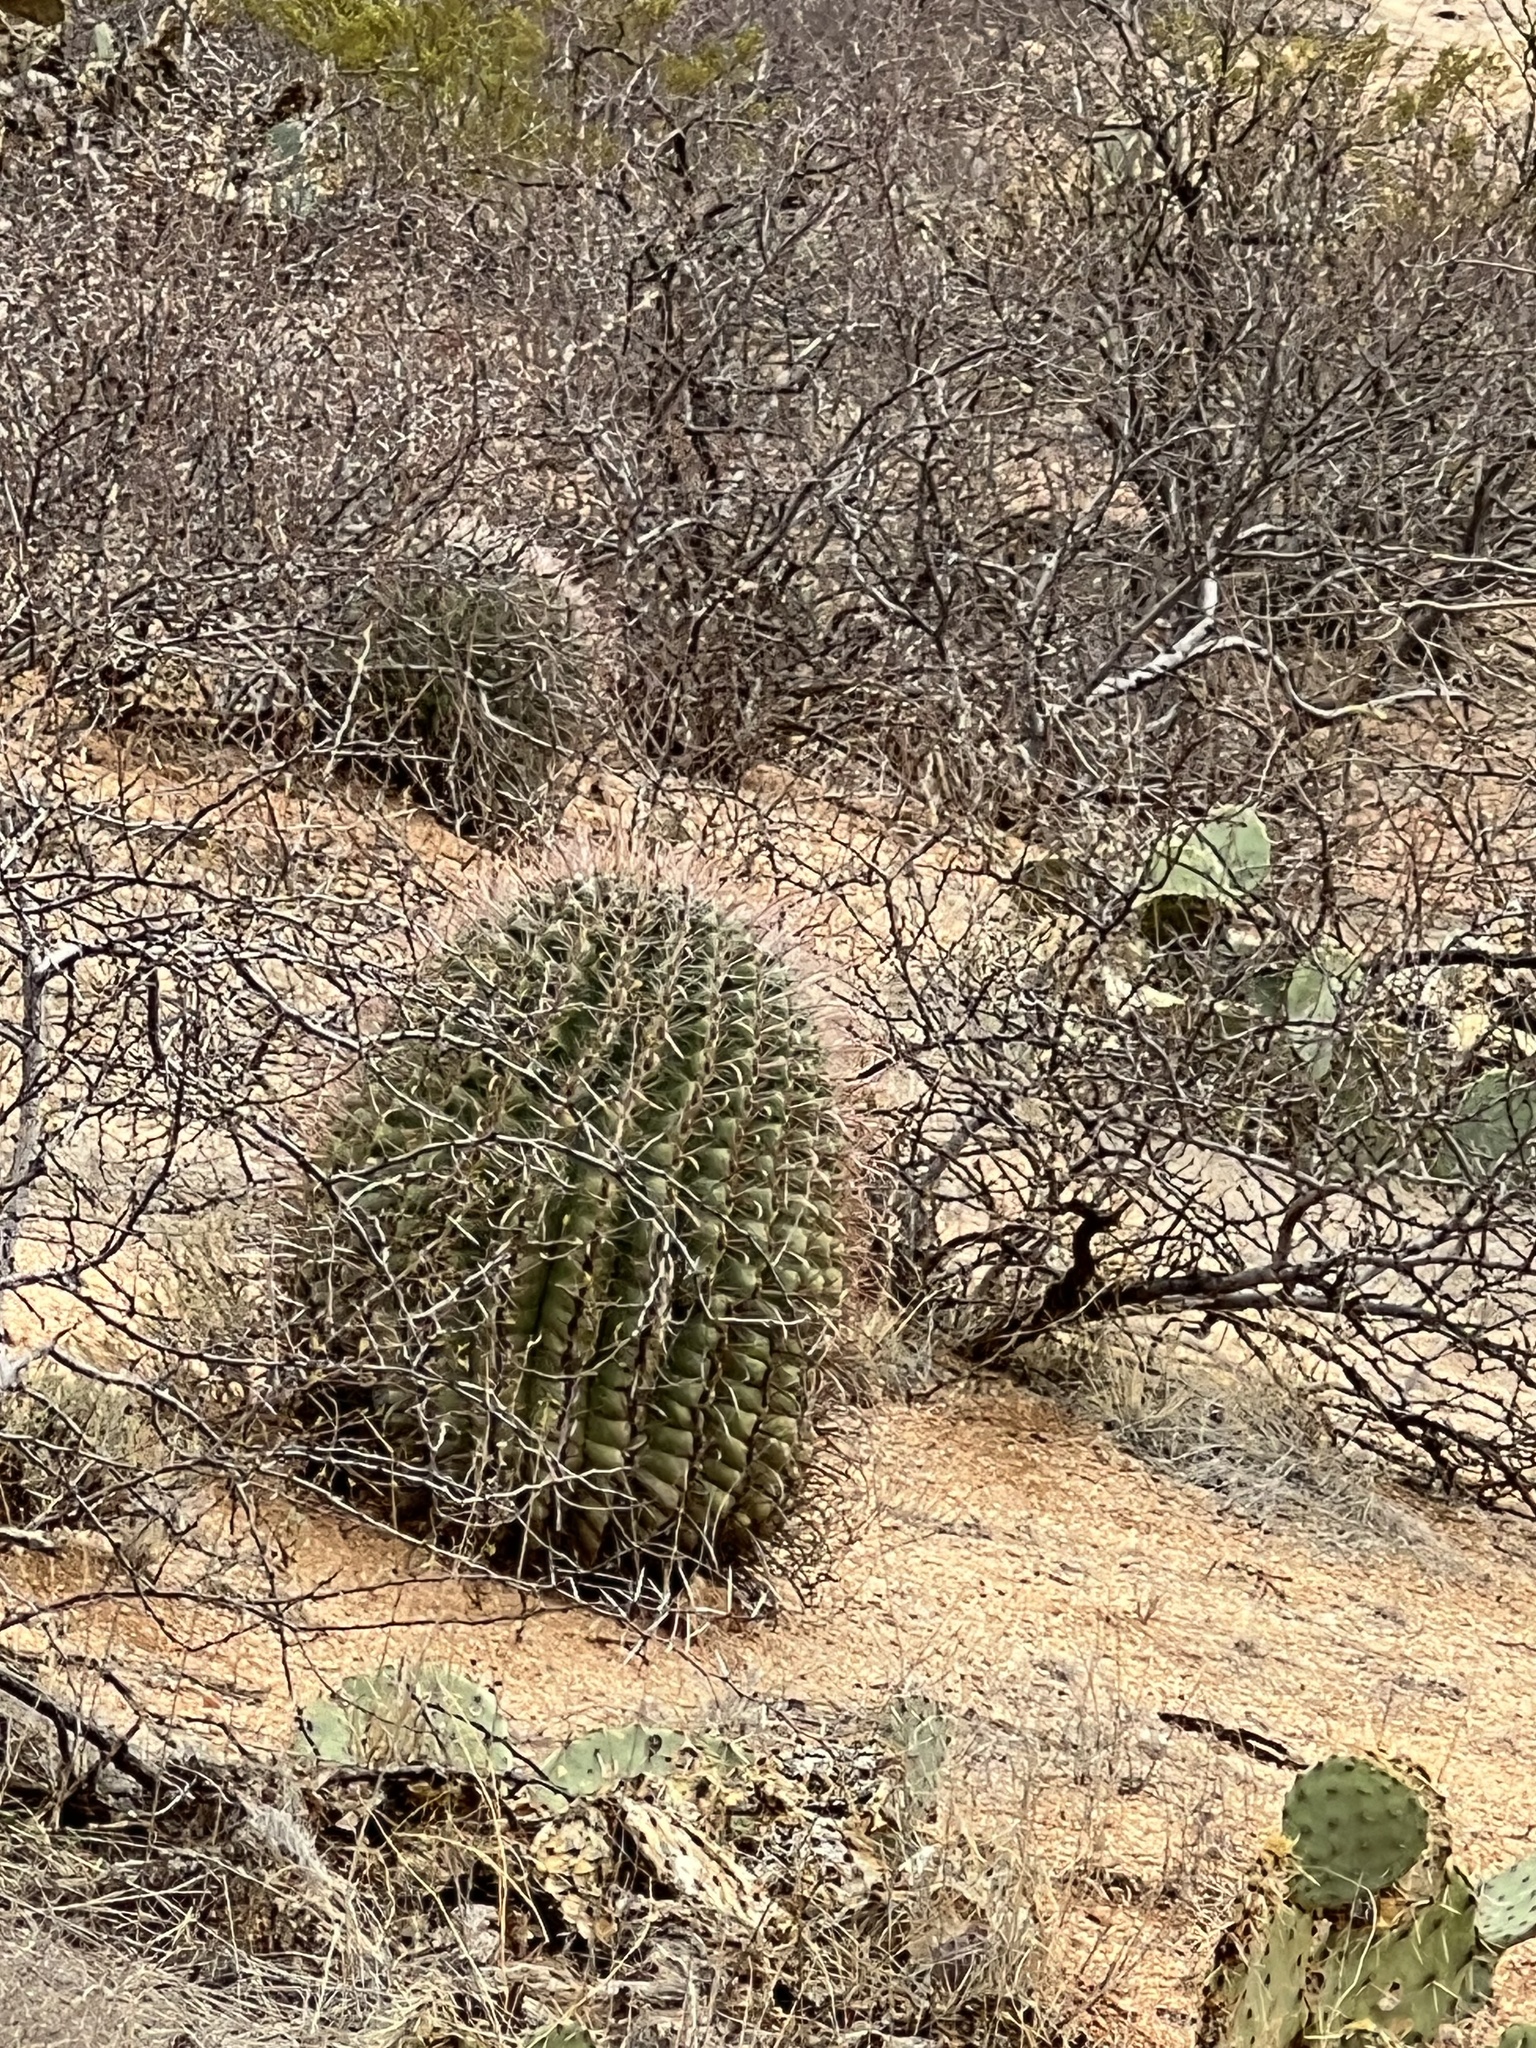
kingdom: Plantae
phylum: Tracheophyta
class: Magnoliopsida
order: Caryophyllales
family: Cactaceae
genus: Ferocactus
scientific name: Ferocactus wislizeni
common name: Candy barrel cactus
